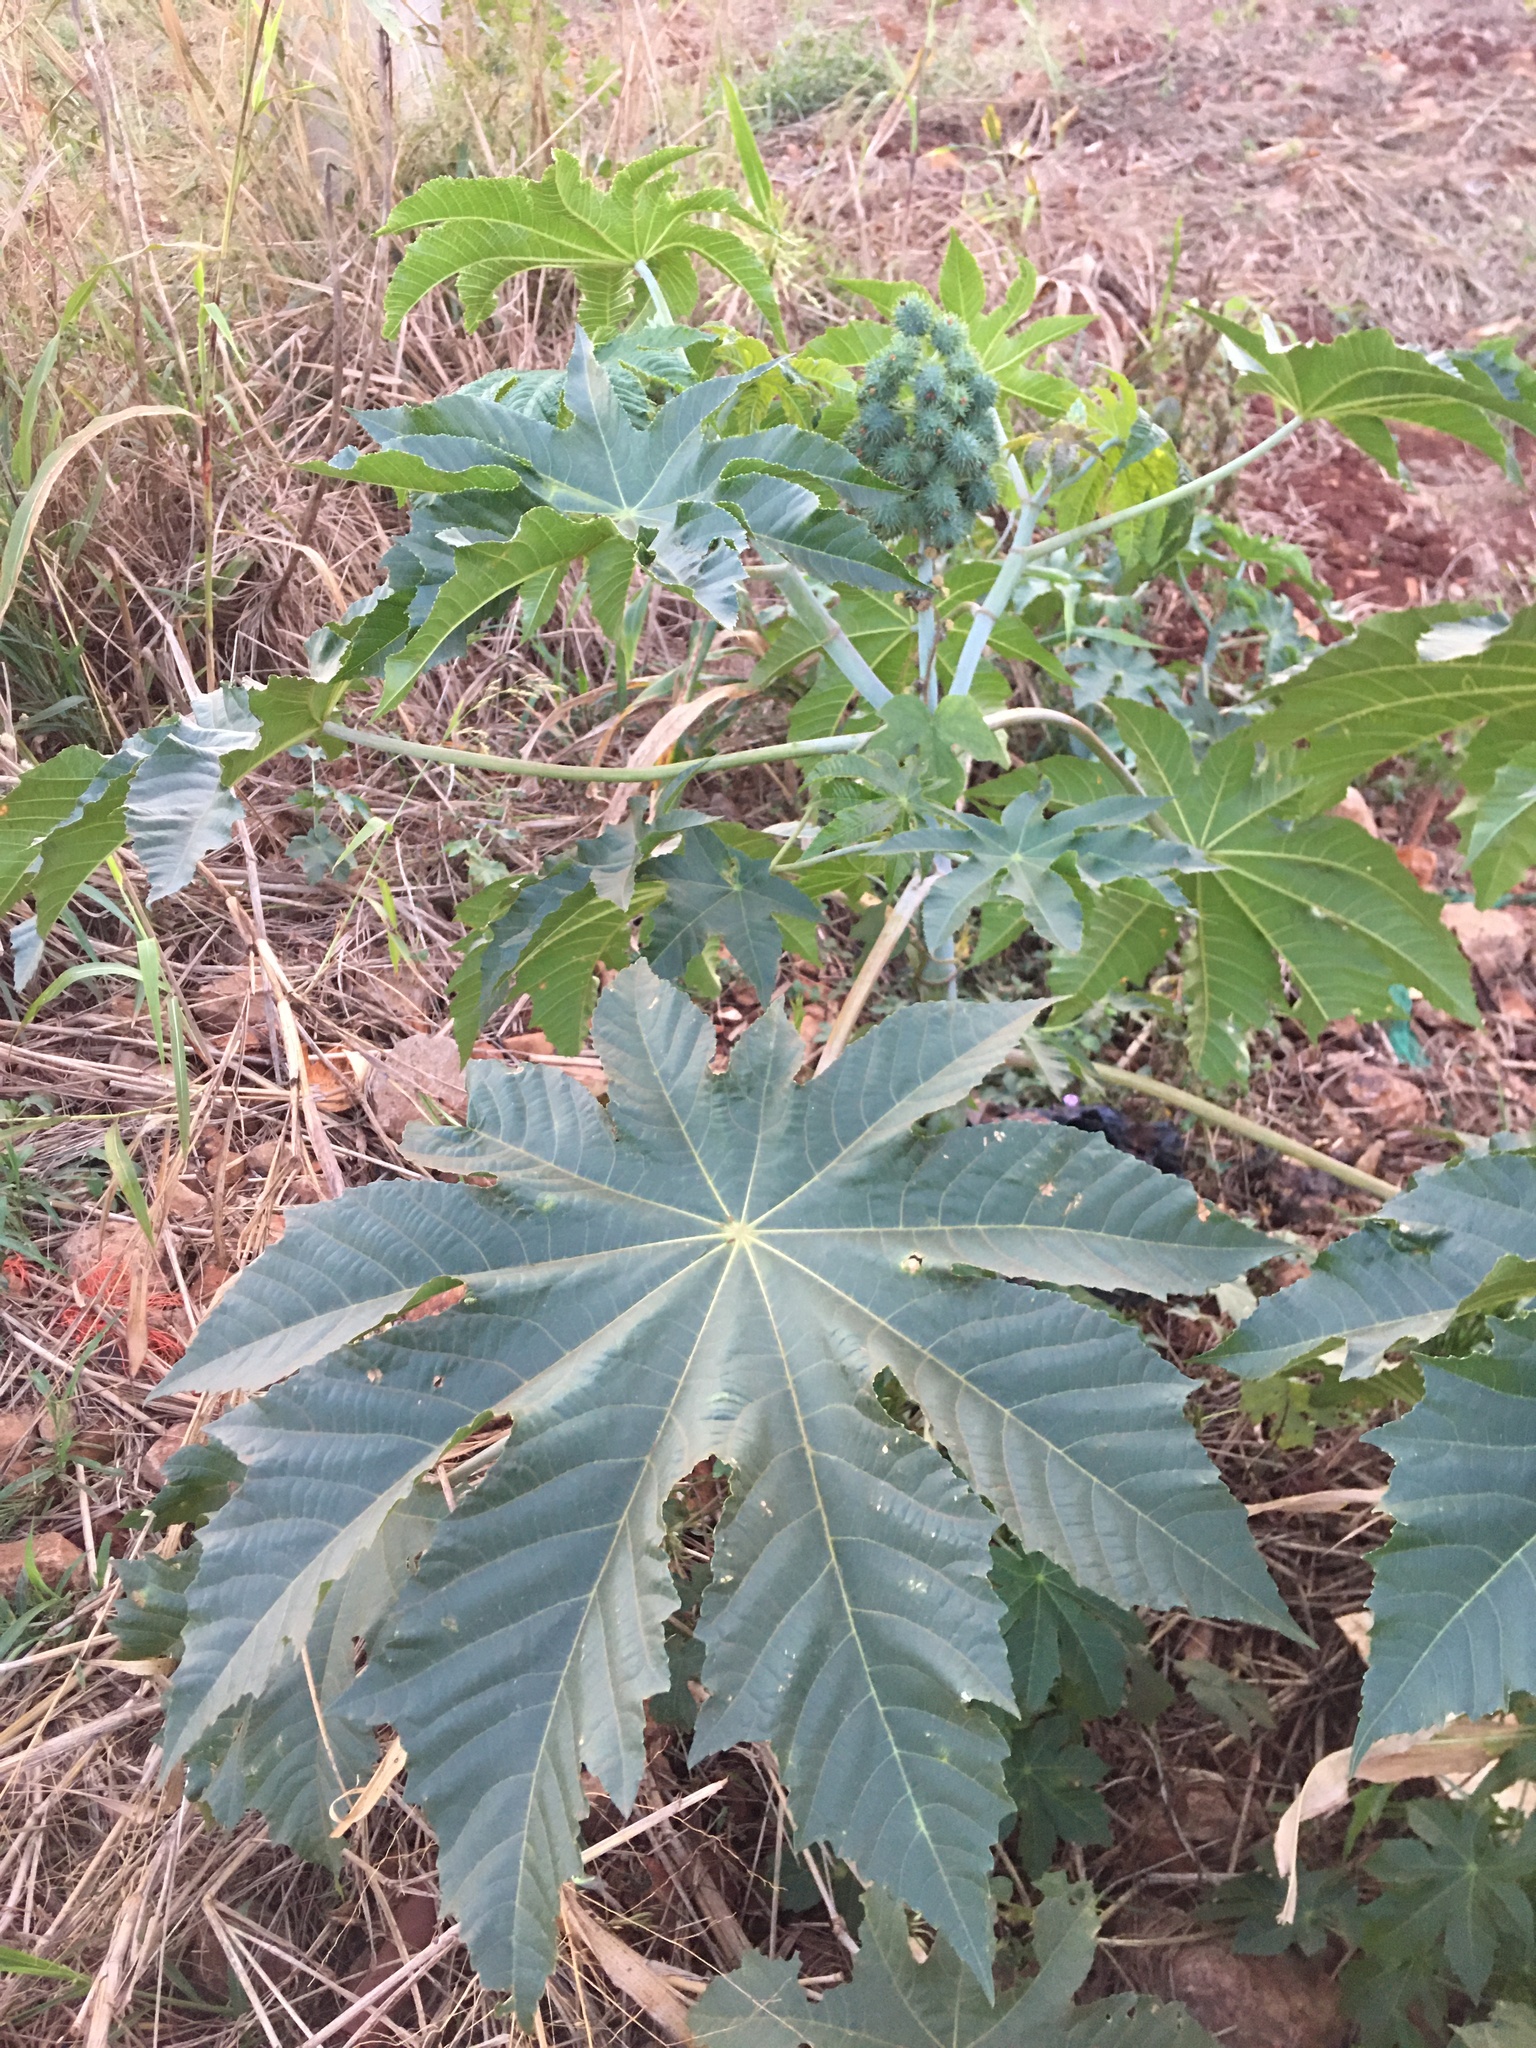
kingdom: Plantae
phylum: Tracheophyta
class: Magnoliopsida
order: Malpighiales
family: Euphorbiaceae
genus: Ricinus
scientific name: Ricinus communis
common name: Castor-oil-plant
